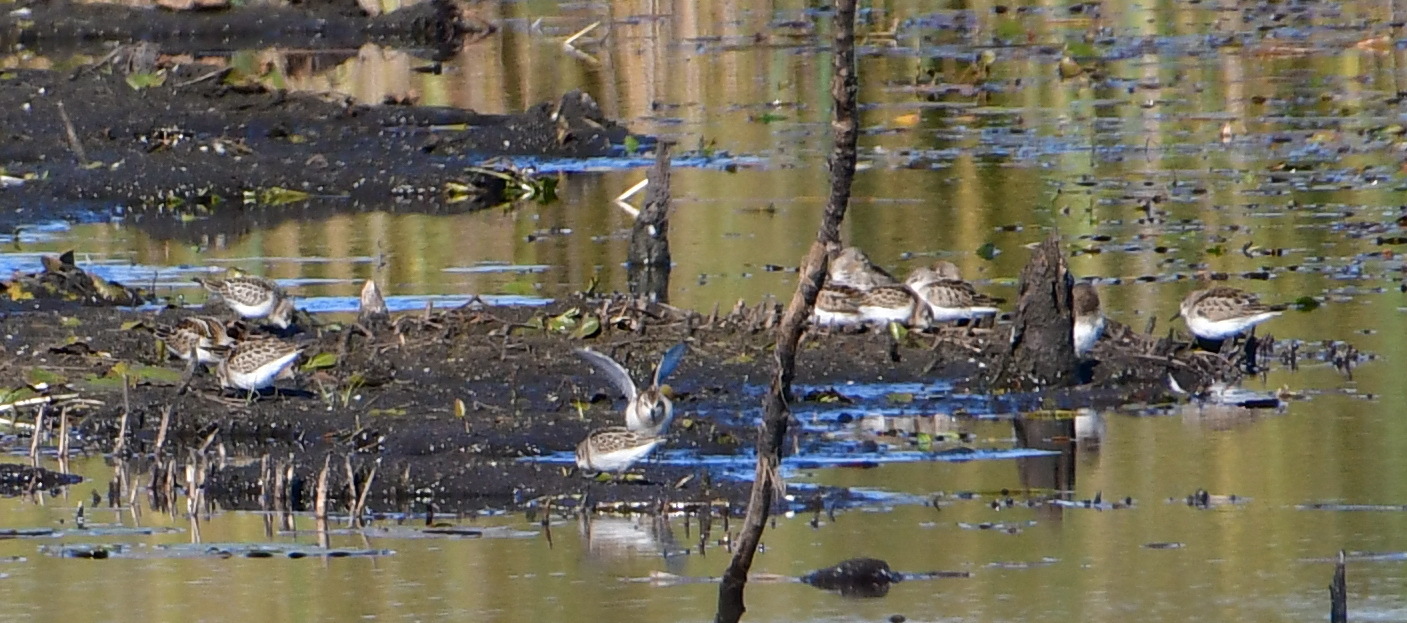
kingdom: Animalia
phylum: Chordata
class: Aves
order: Charadriiformes
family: Scolopacidae
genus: Calidris
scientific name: Calidris minuta
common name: Little stint
